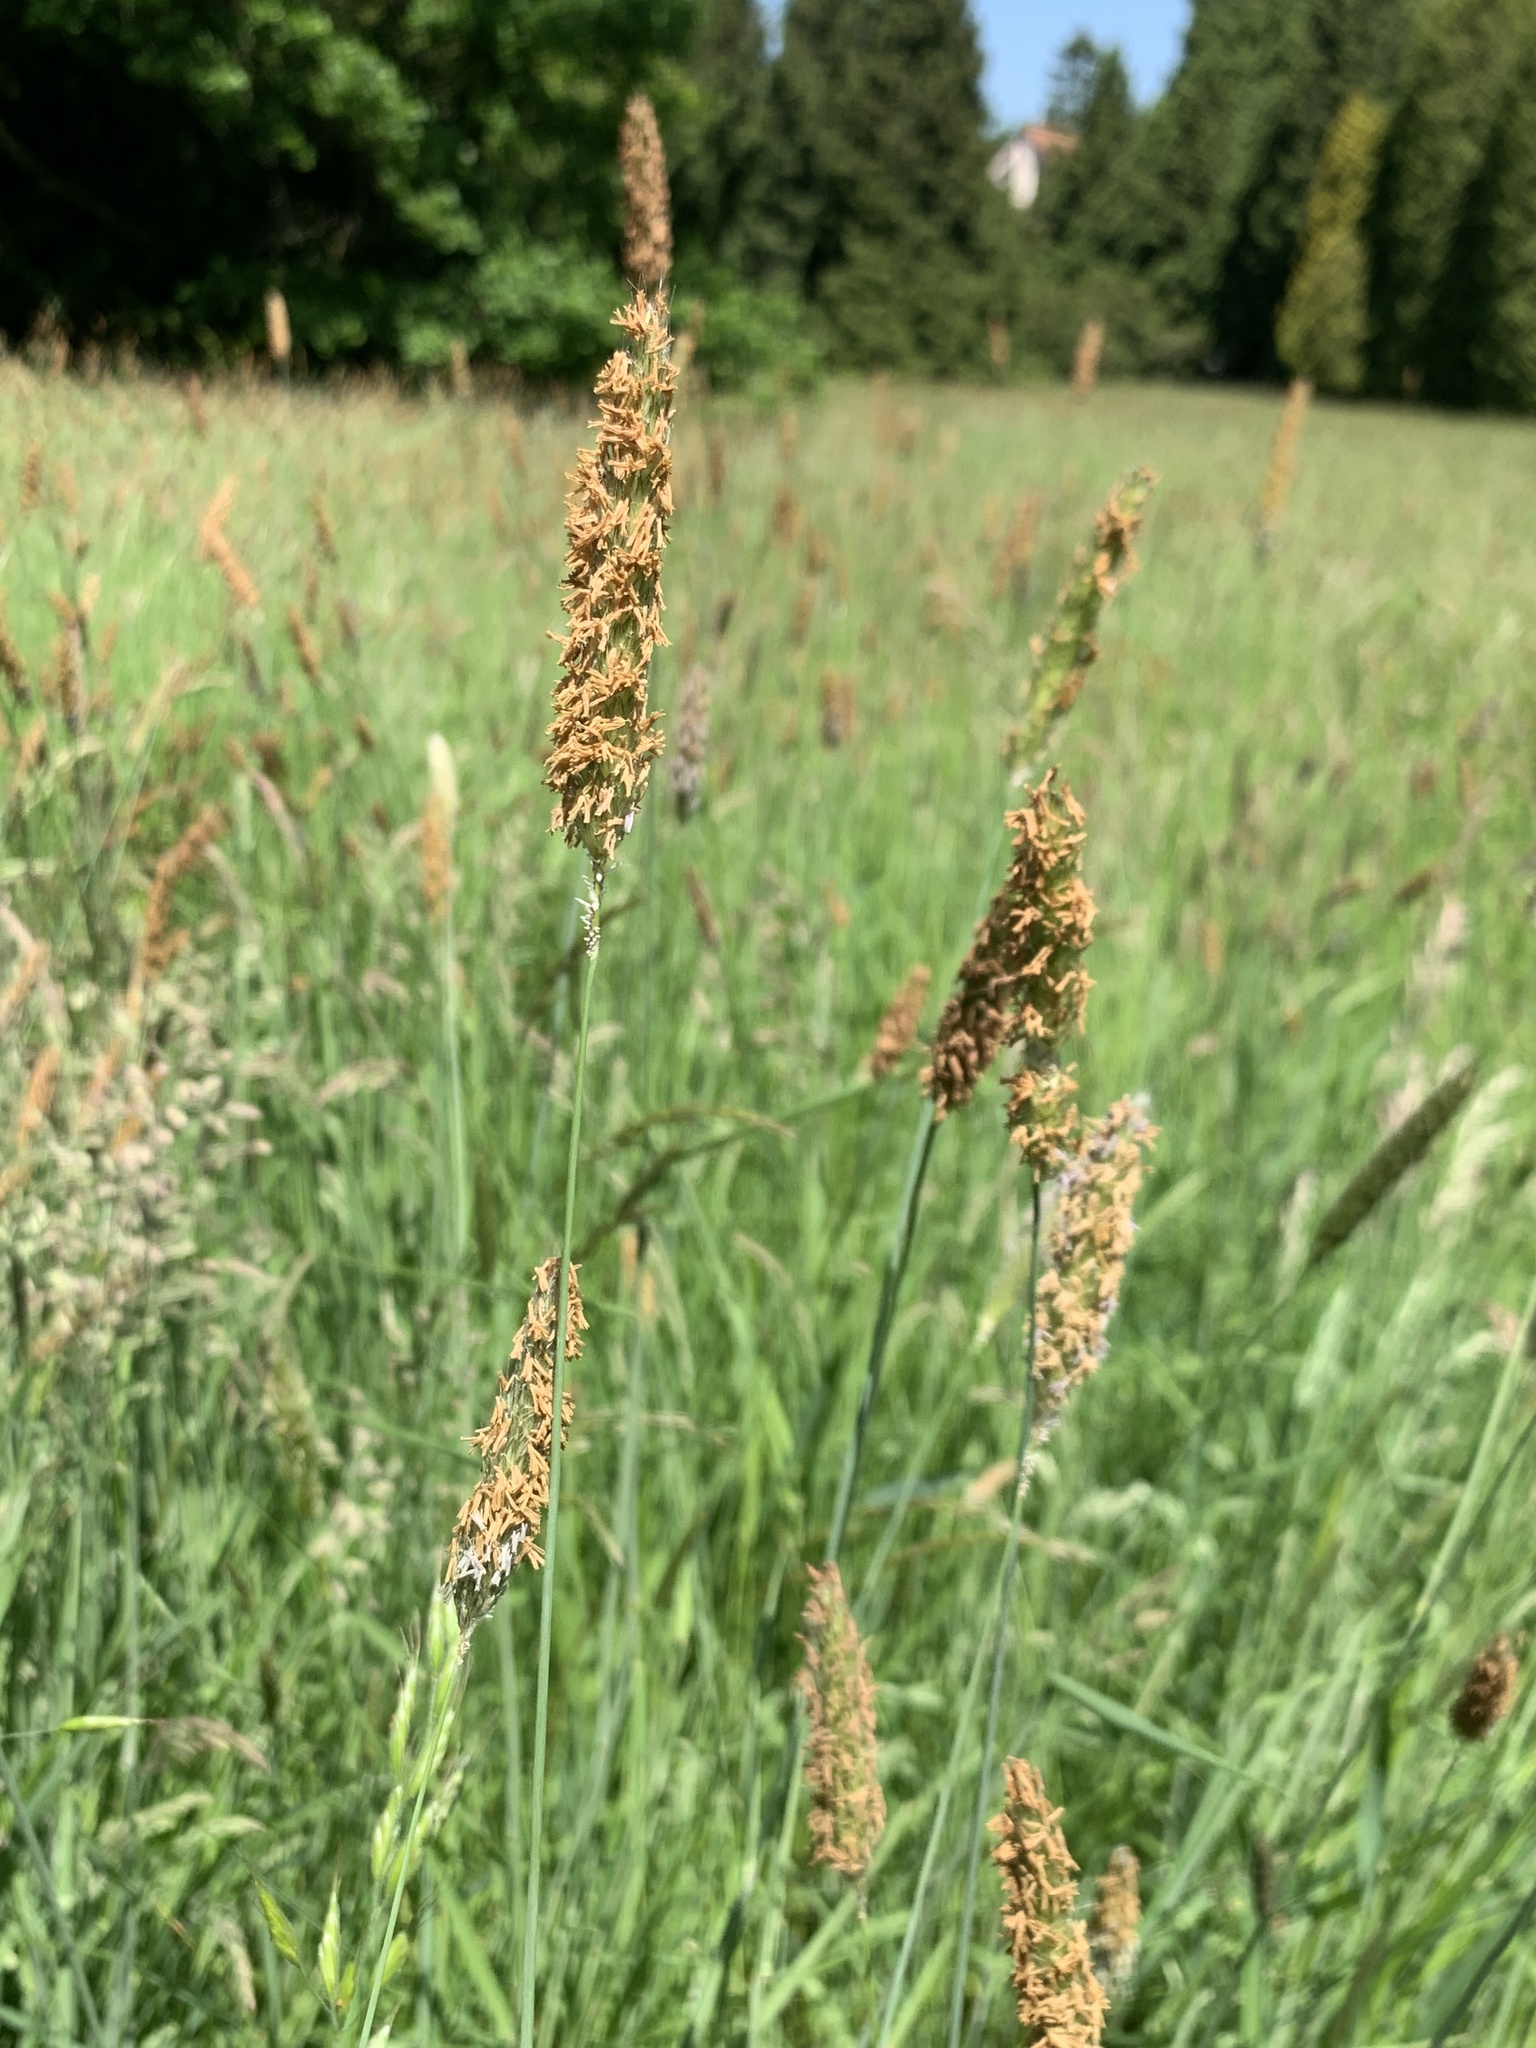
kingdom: Plantae
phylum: Tracheophyta
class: Liliopsida
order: Poales
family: Poaceae
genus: Alopecurus
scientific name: Alopecurus pratensis
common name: Meadow foxtail
